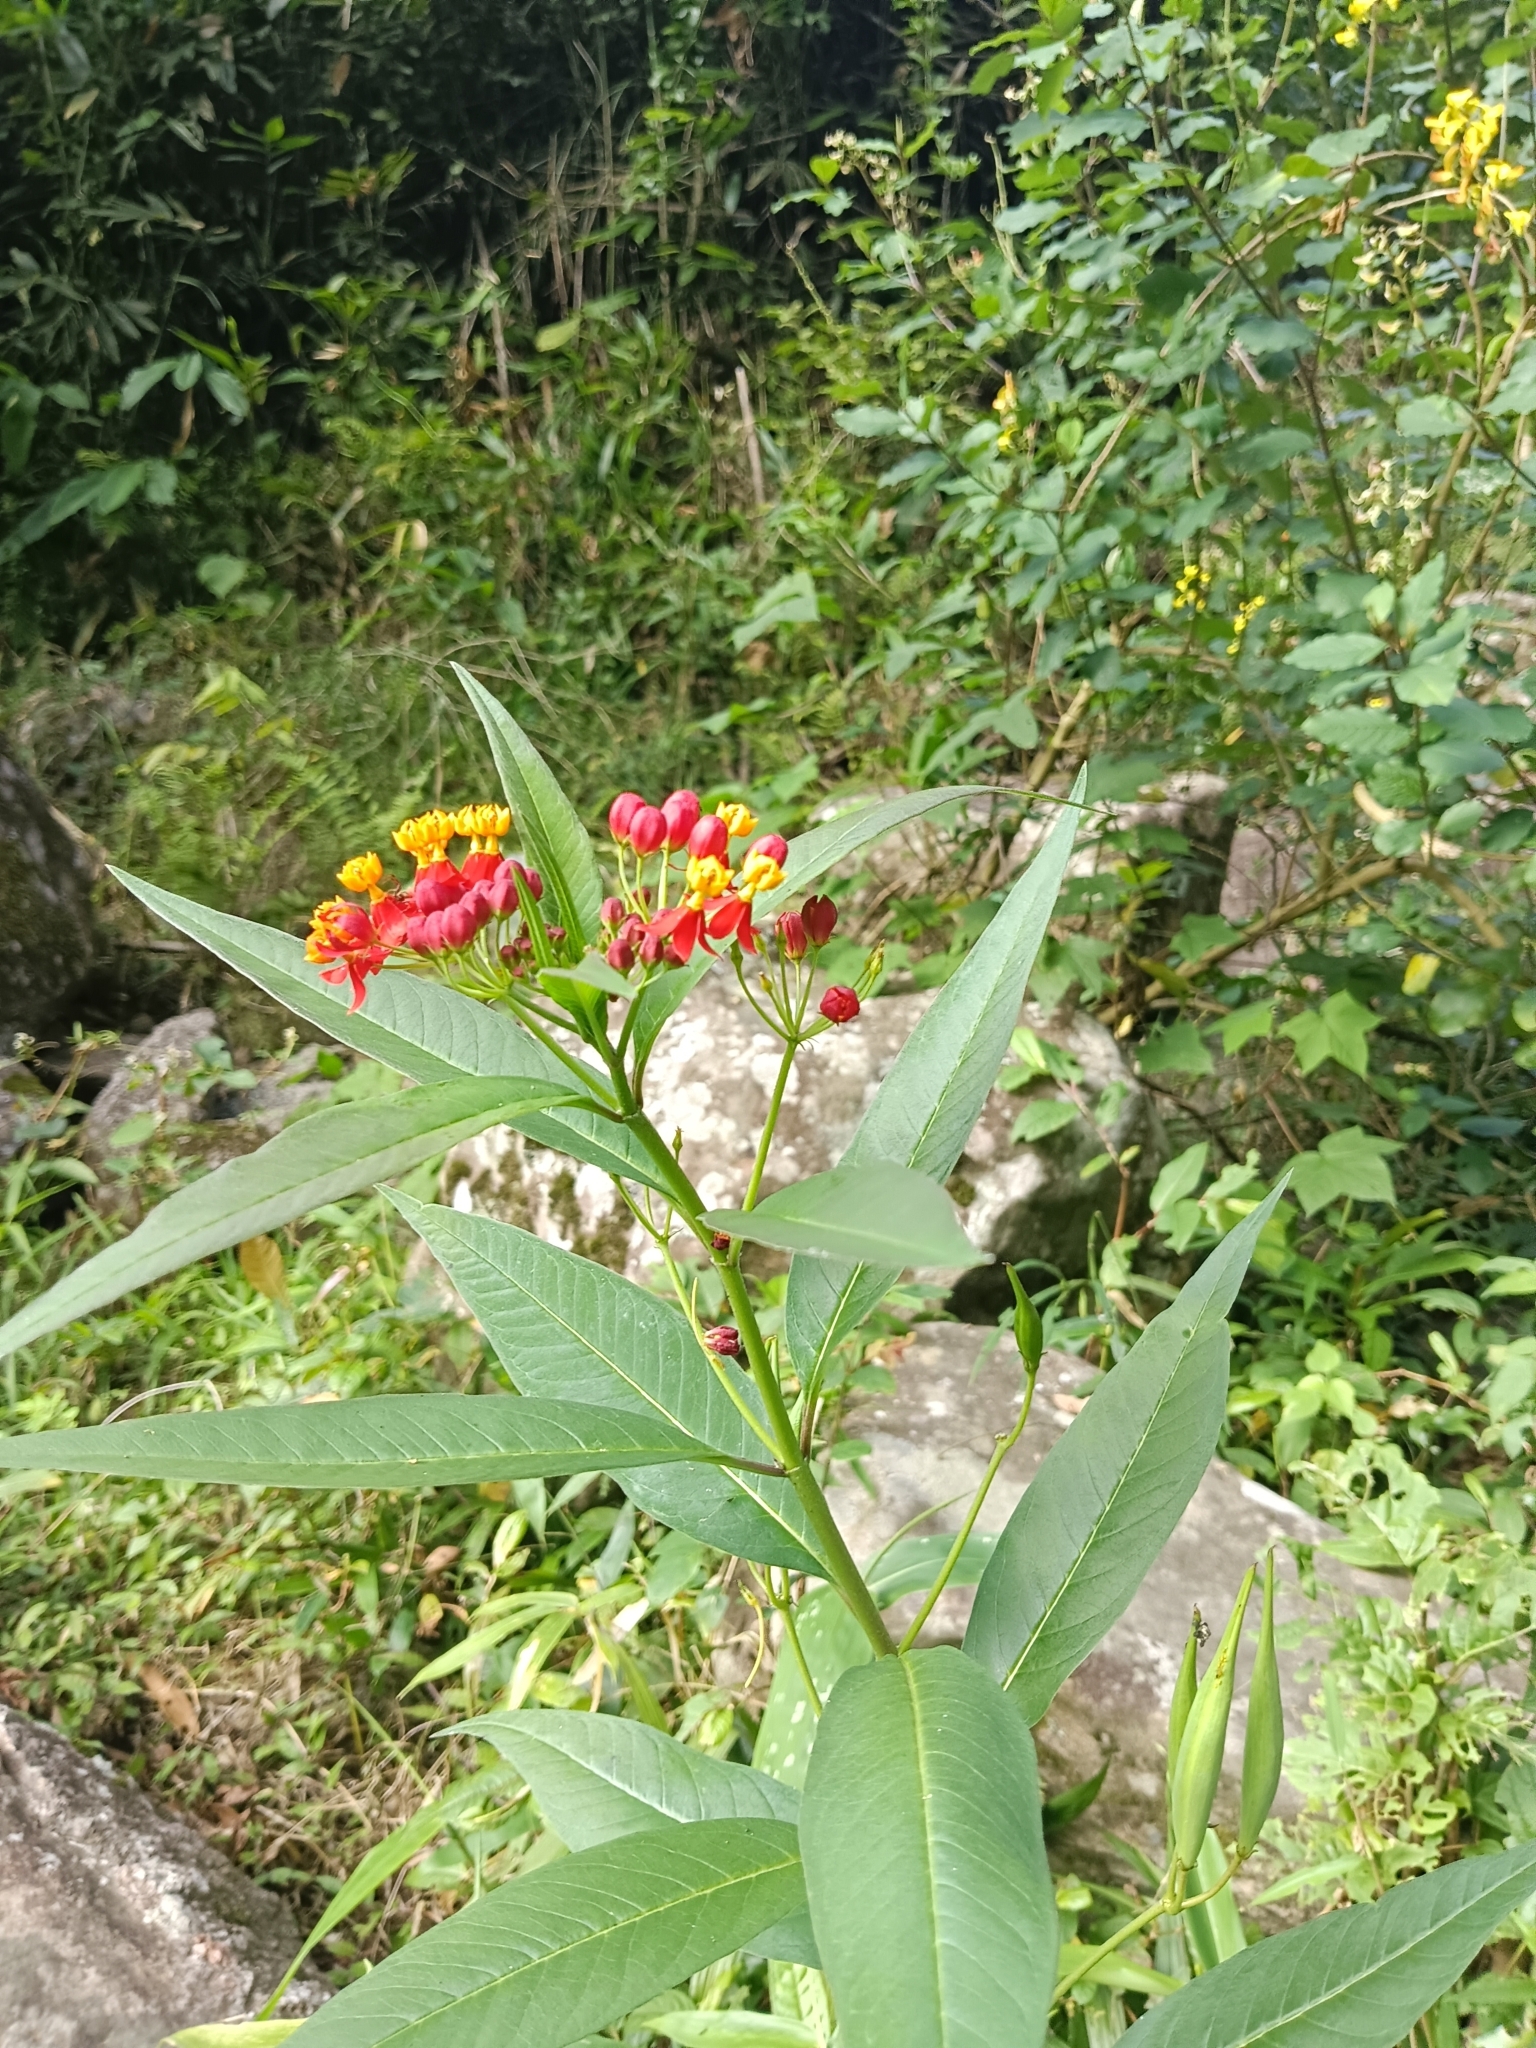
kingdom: Plantae
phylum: Tracheophyta
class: Magnoliopsida
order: Gentianales
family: Apocynaceae
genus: Asclepias
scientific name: Asclepias curassavica
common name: Bloodflower
